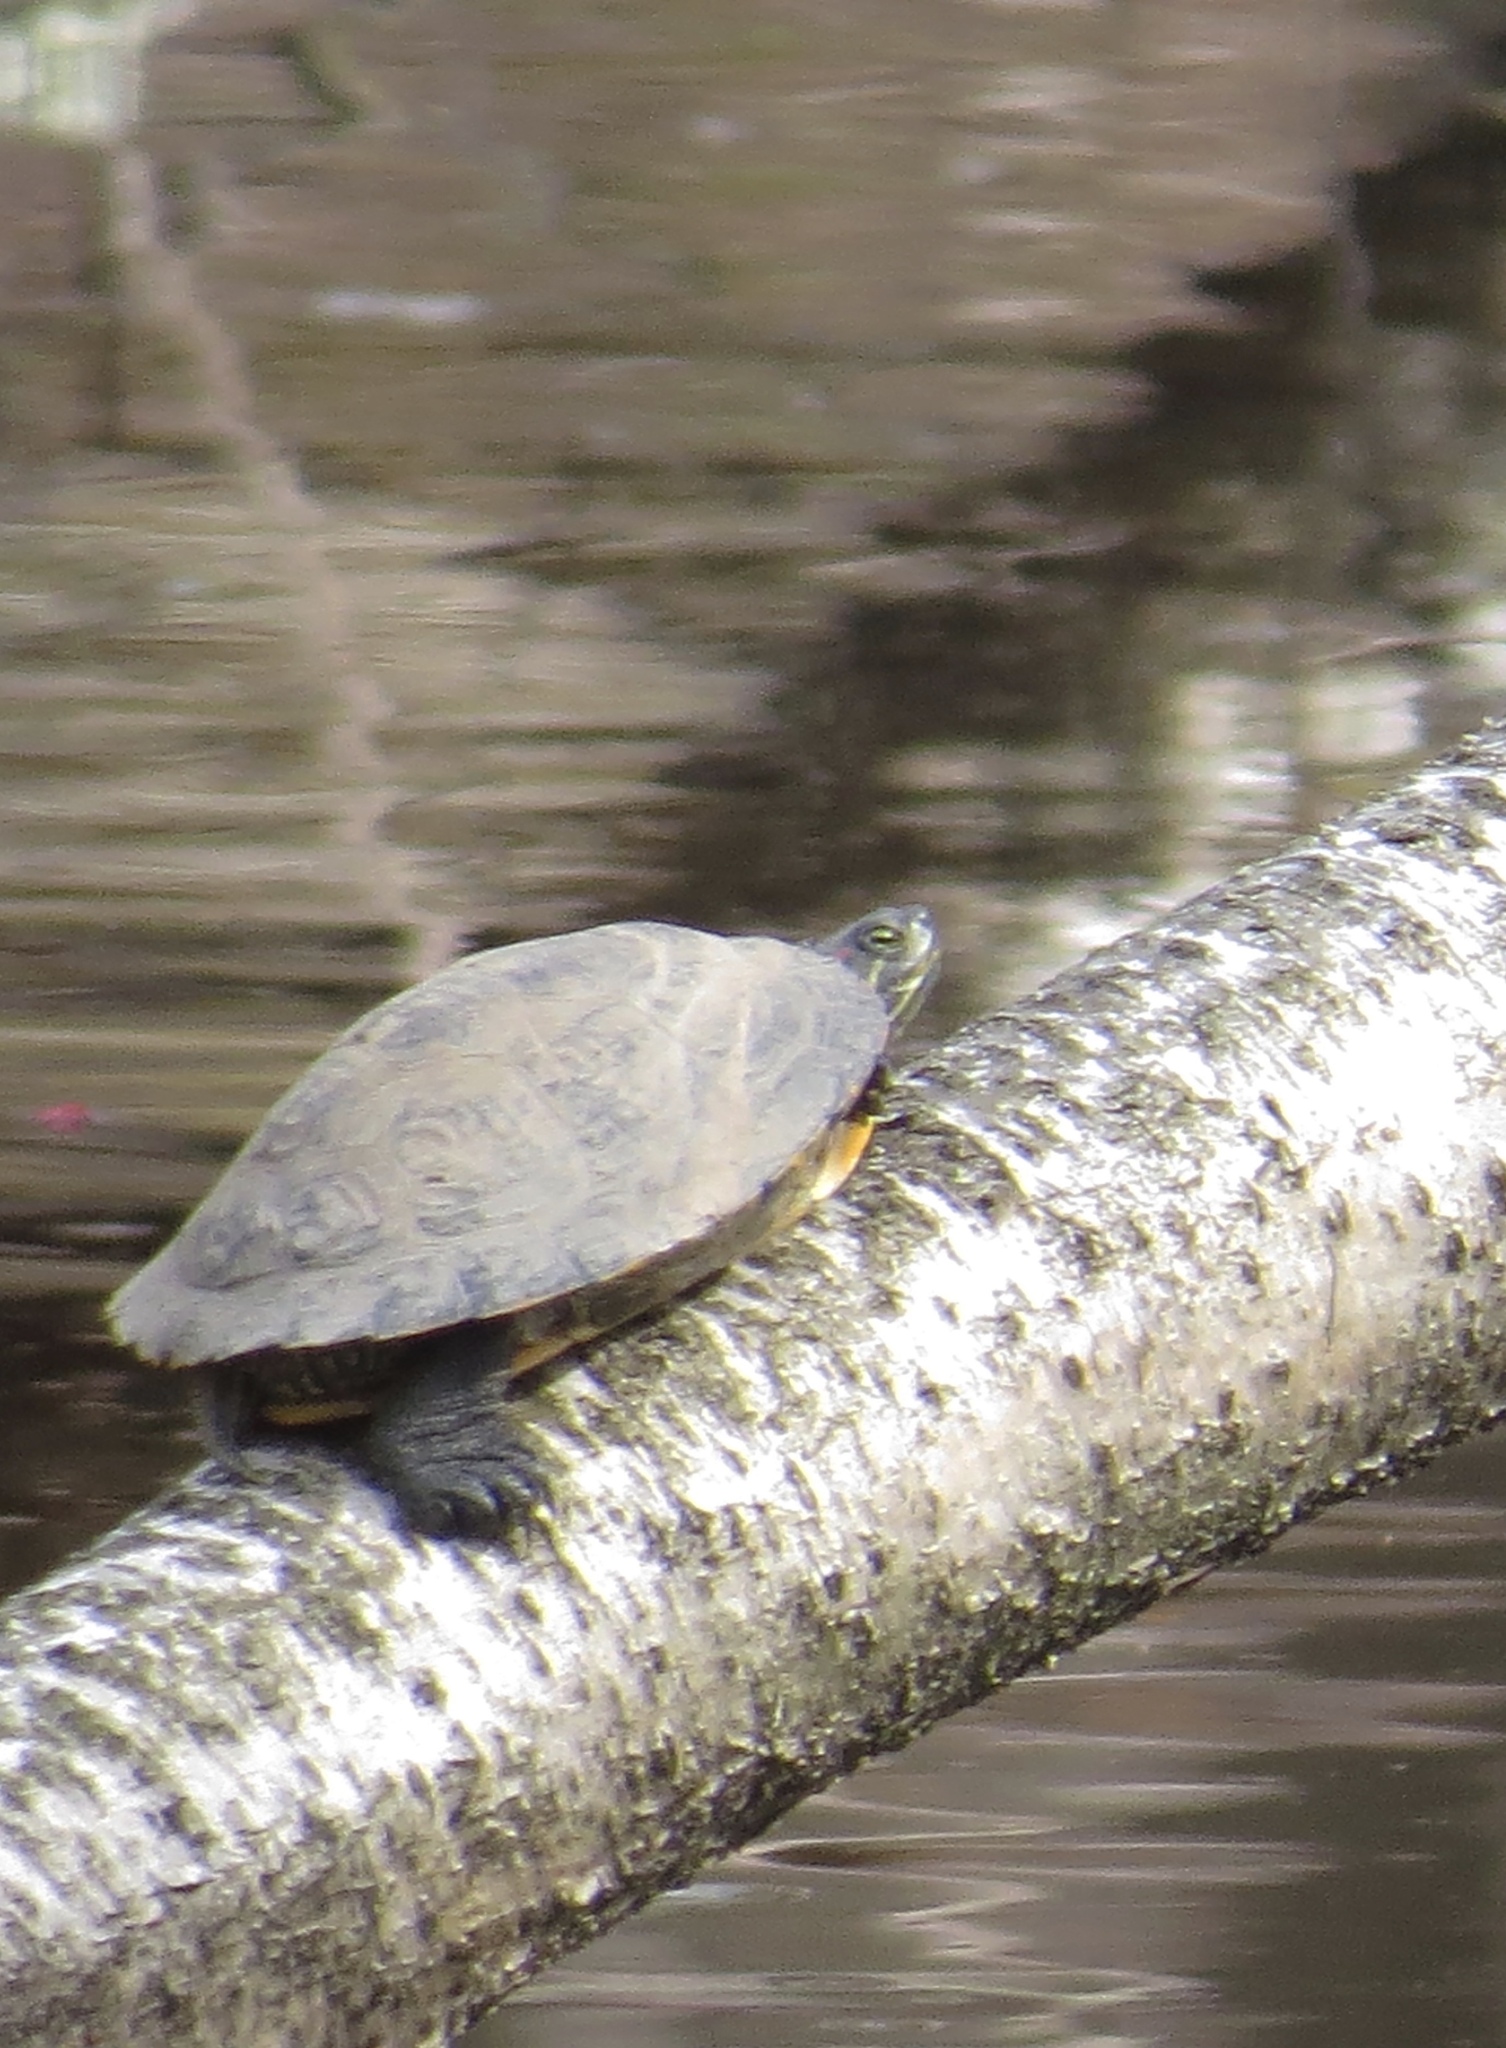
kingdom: Animalia
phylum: Chordata
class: Testudines
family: Emydidae
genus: Trachemys
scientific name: Trachemys scripta
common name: Slider
